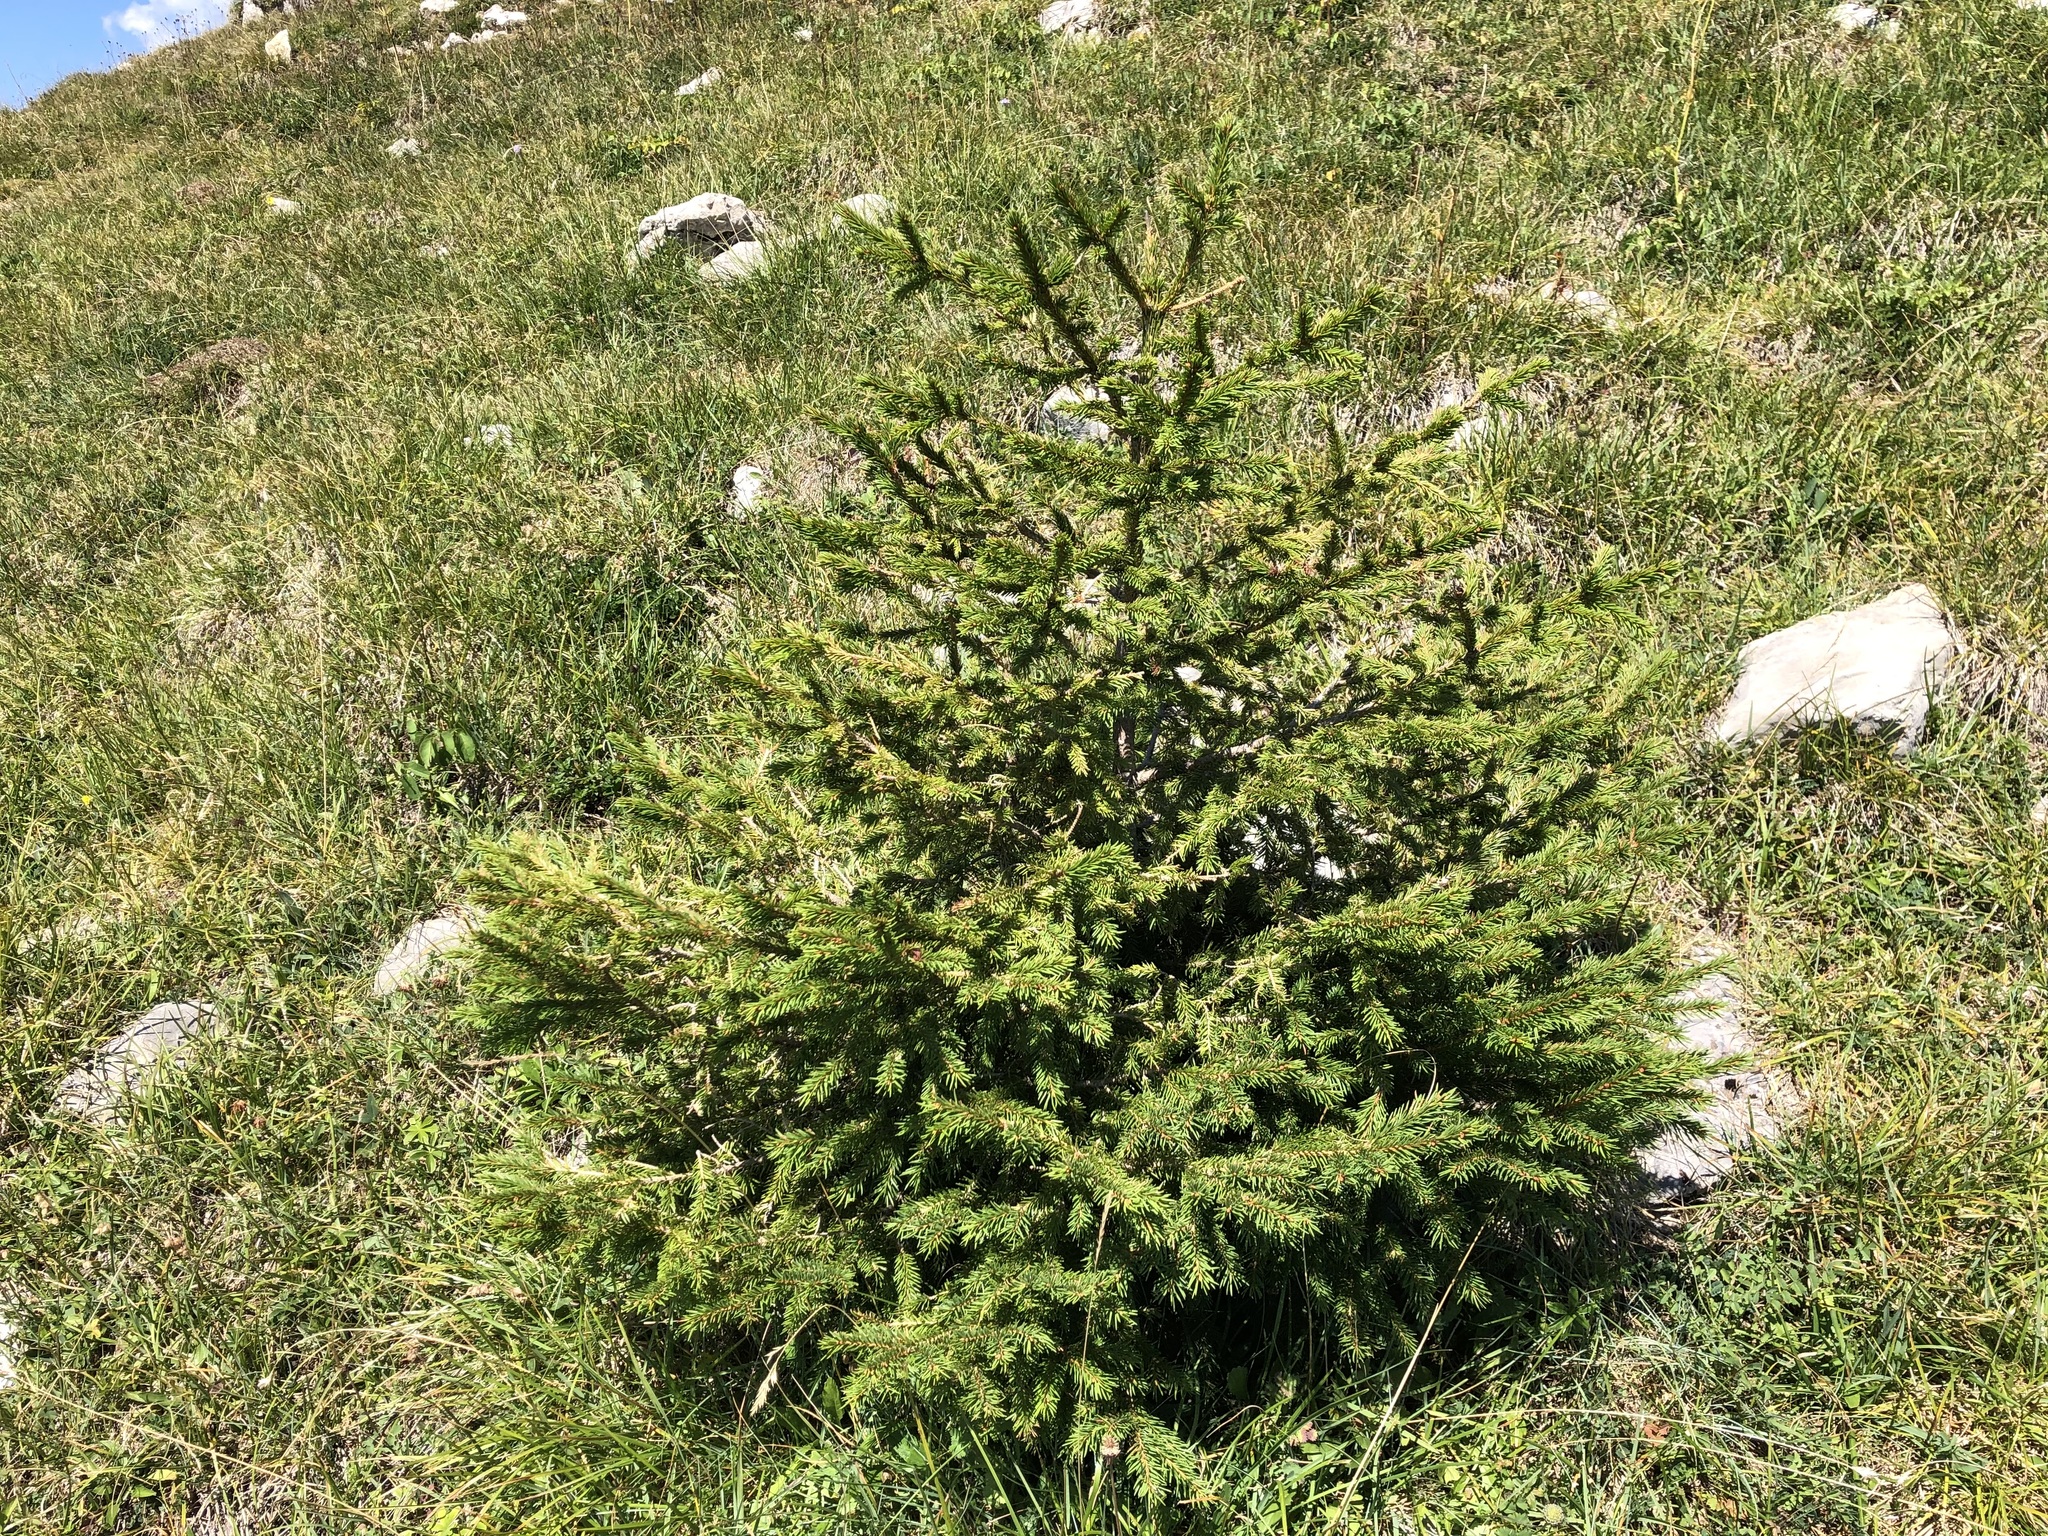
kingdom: Plantae
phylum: Tracheophyta
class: Pinopsida
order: Pinales
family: Pinaceae
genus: Picea
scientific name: Picea abies
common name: Norway spruce
